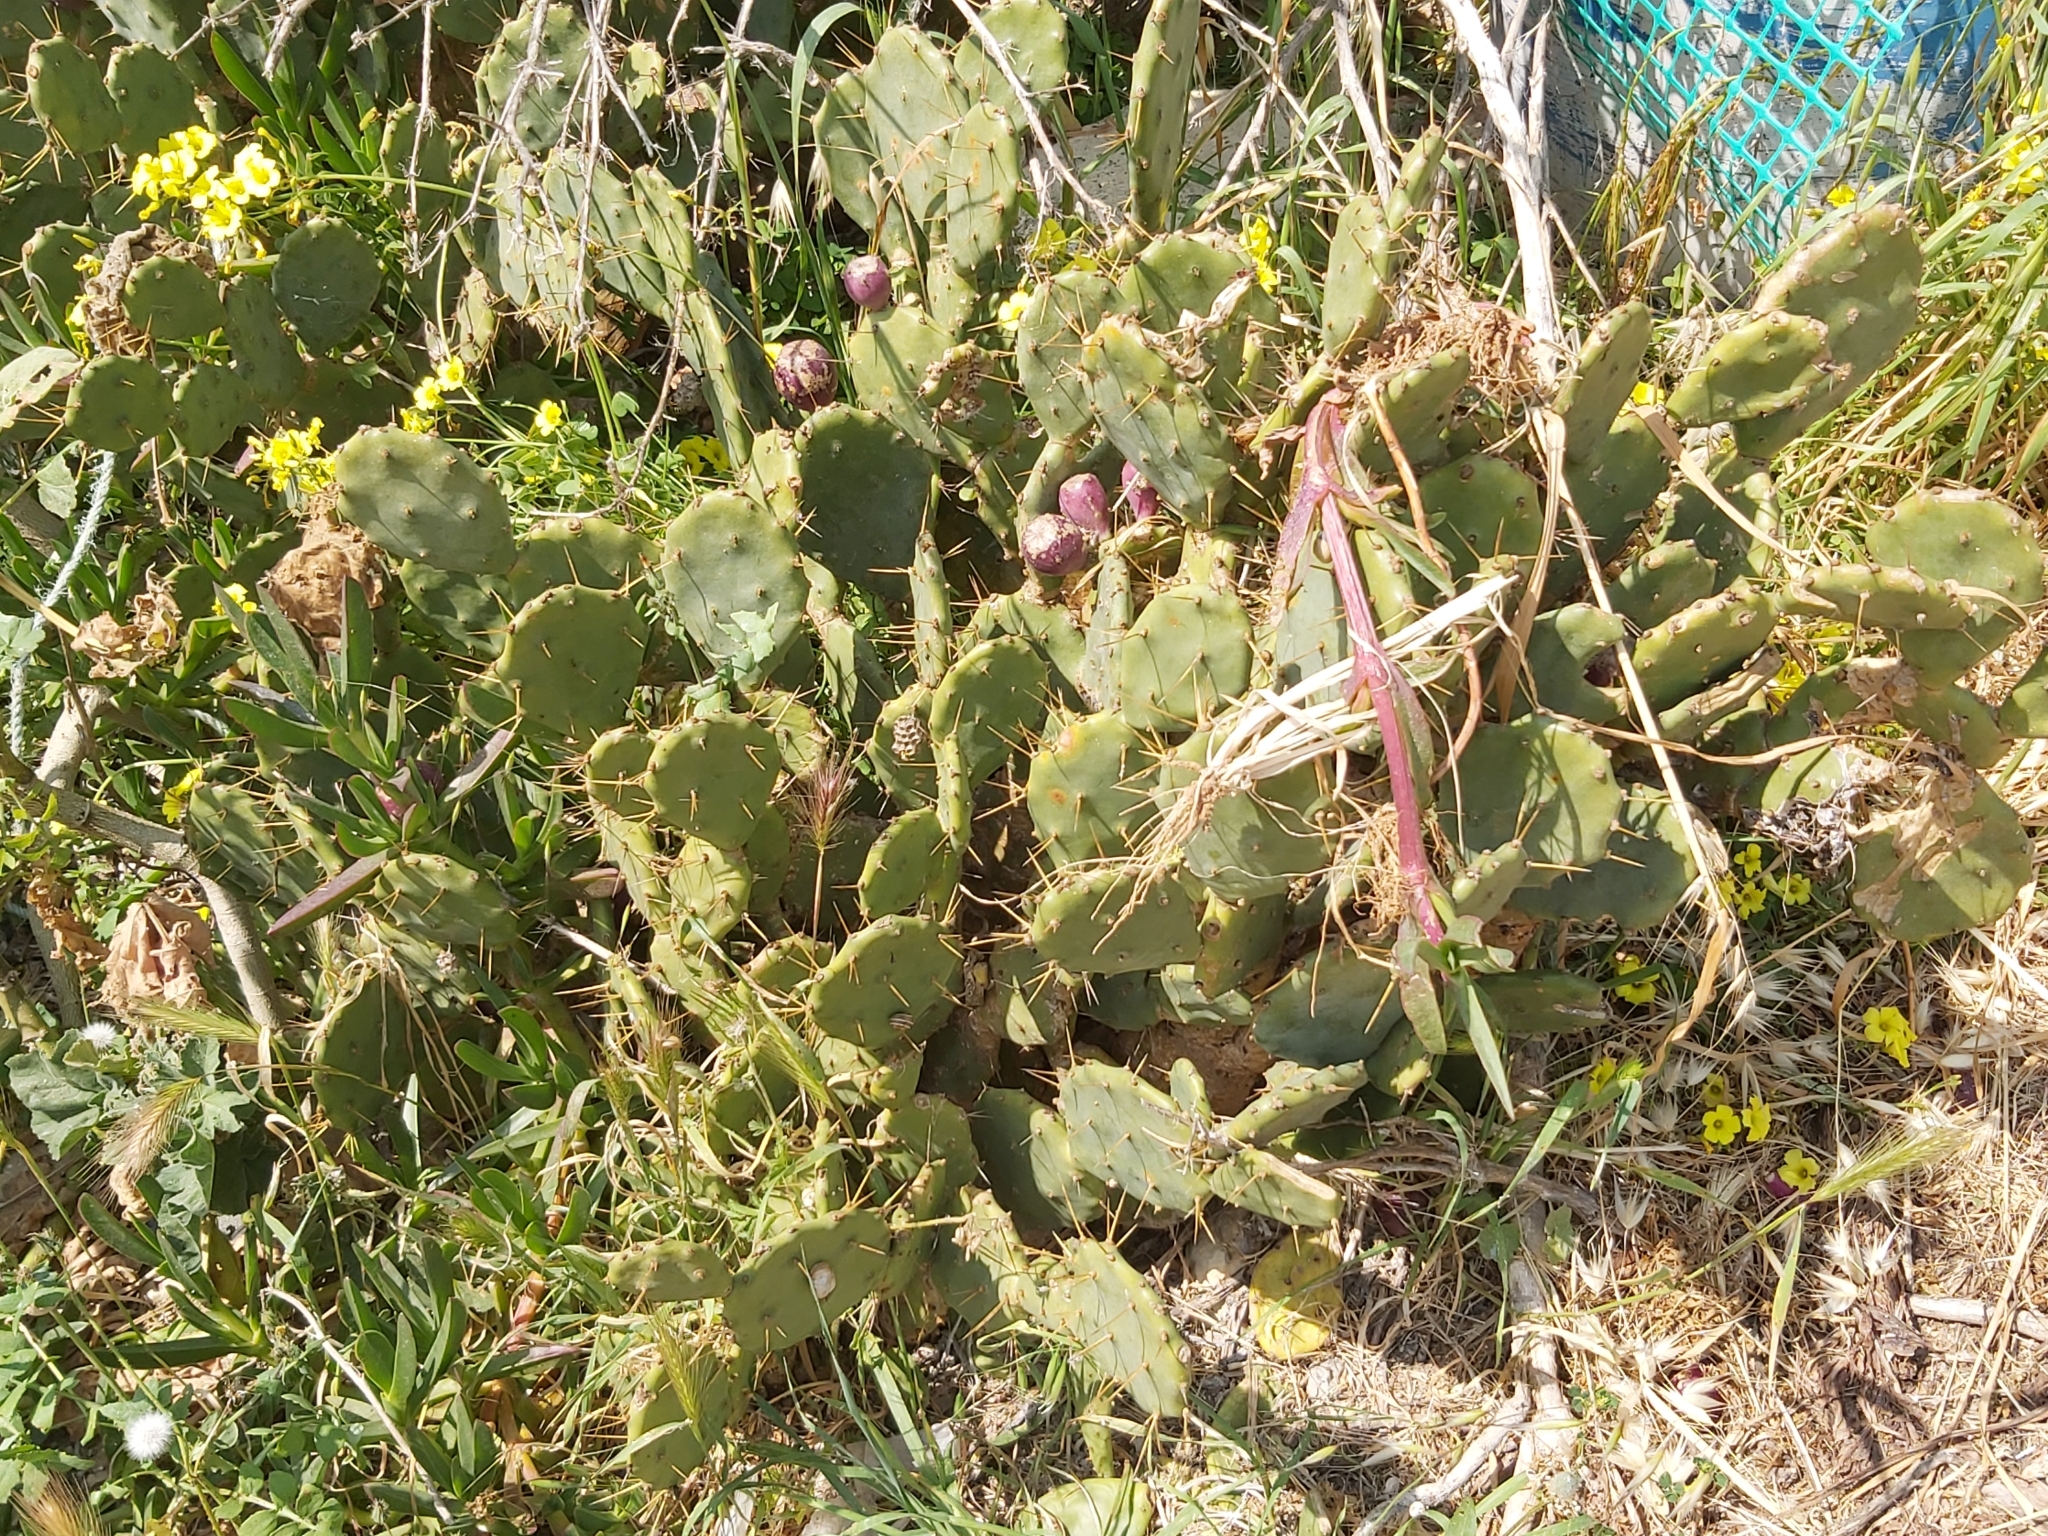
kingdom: Plantae
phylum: Tracheophyta
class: Magnoliopsida
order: Caryophyllales
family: Cactaceae
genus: Opuntia
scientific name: Opuntia stricta
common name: Erect pricklypear
